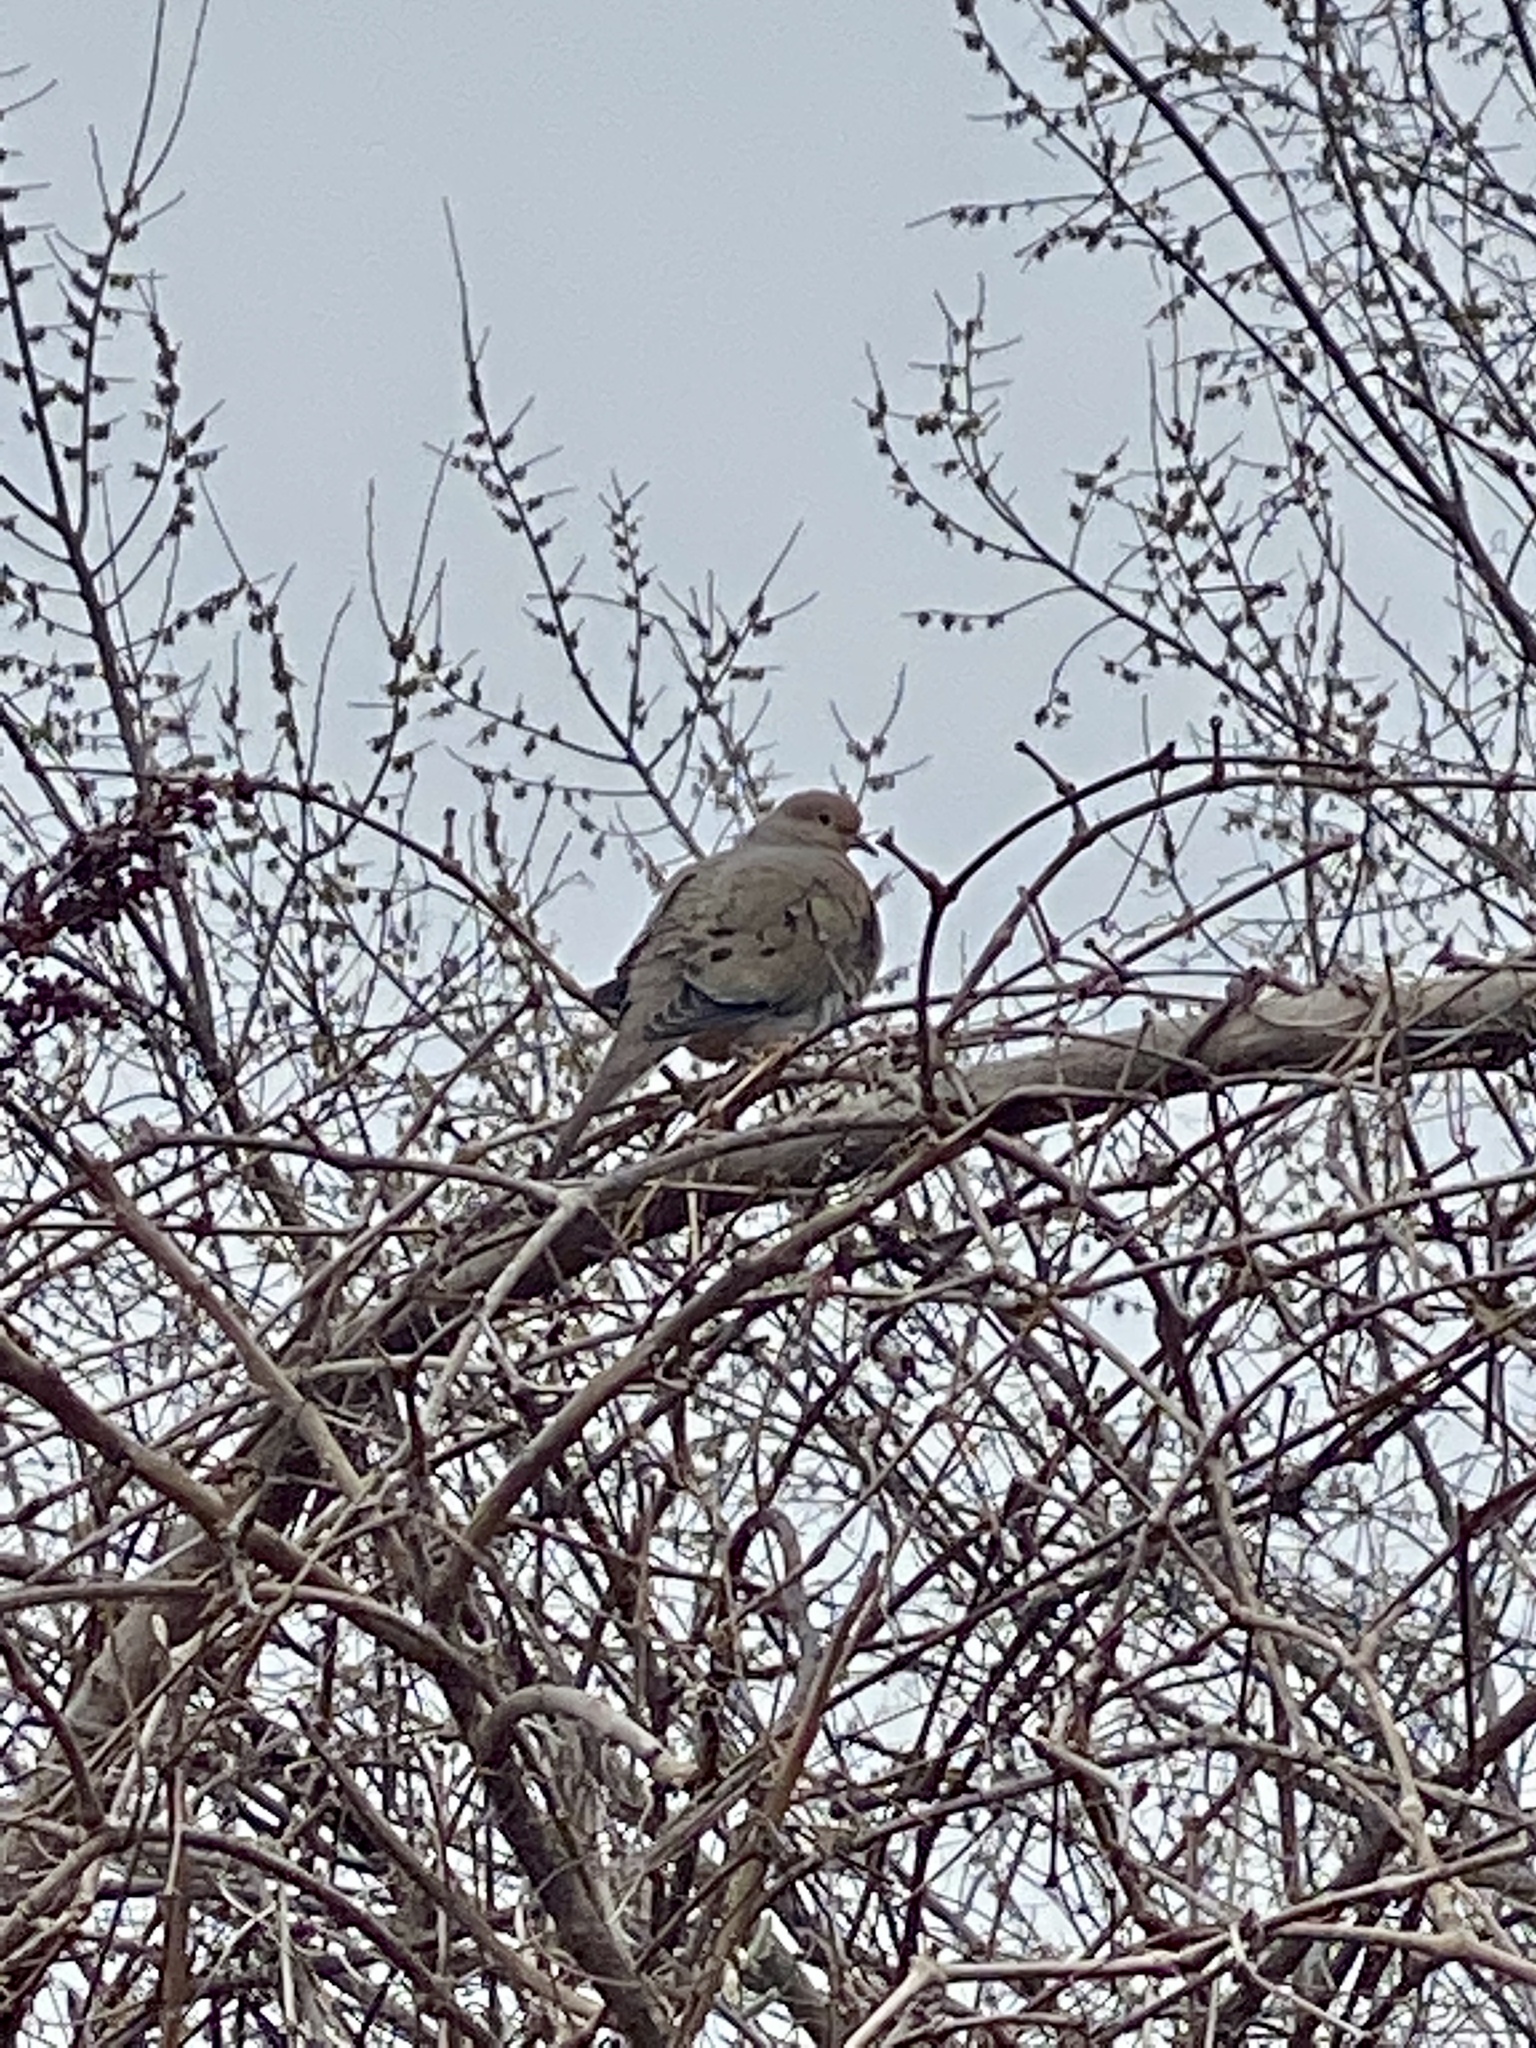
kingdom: Animalia
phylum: Chordata
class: Aves
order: Columbiformes
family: Columbidae
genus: Zenaida
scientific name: Zenaida macroura
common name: Mourning dove
